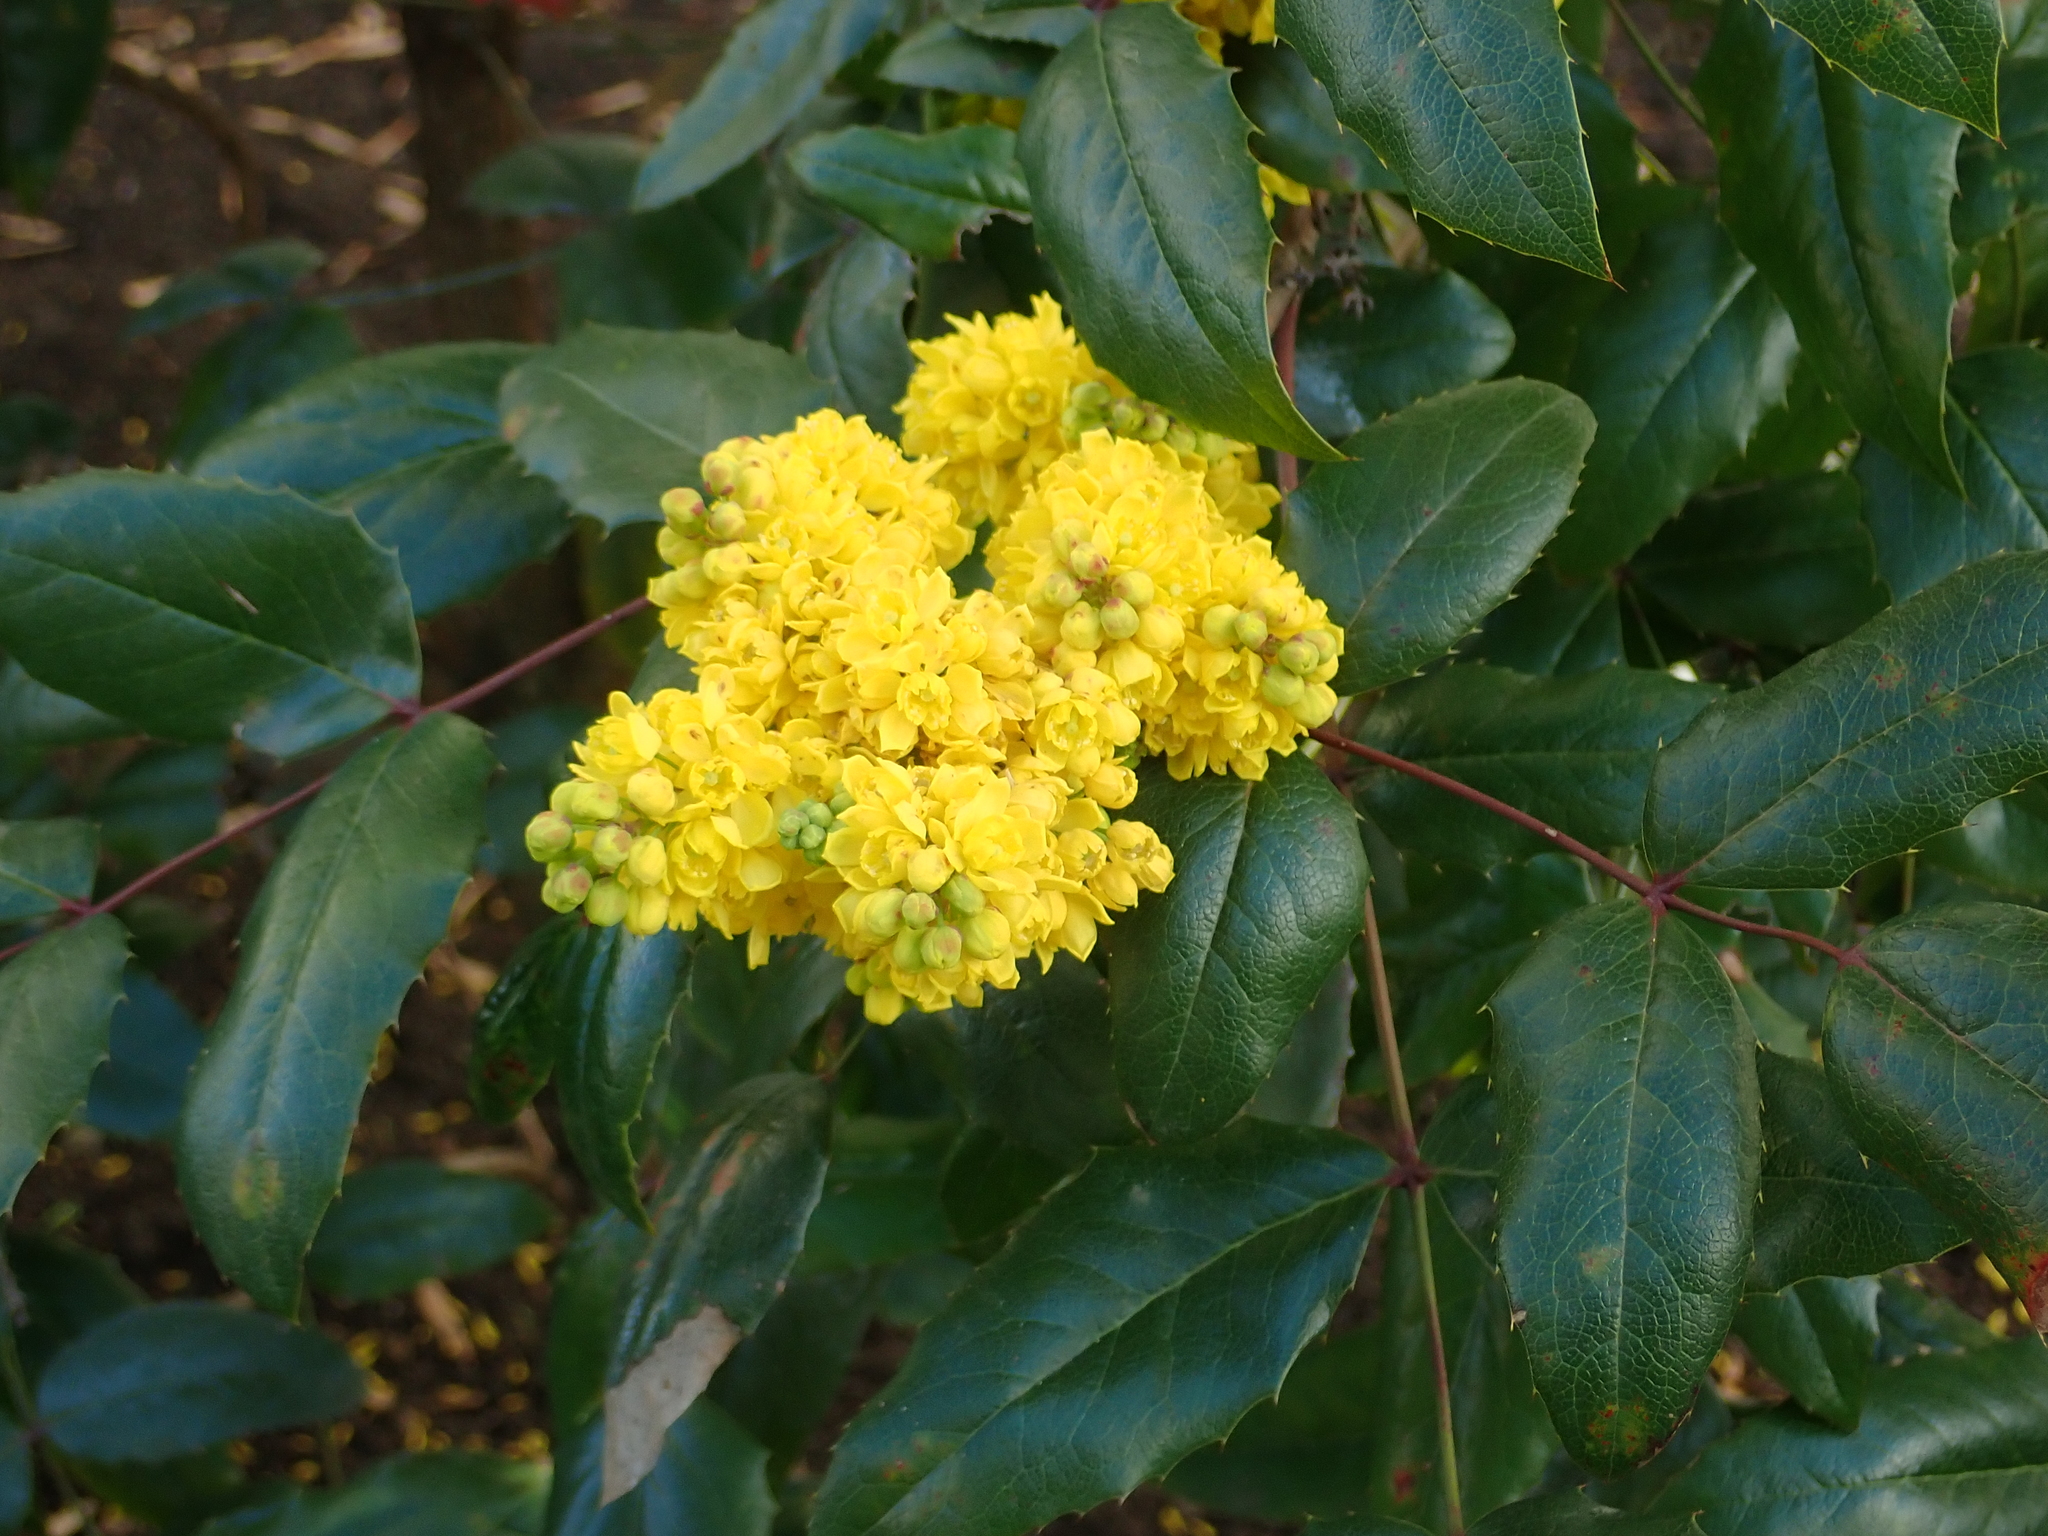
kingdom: Plantae
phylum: Tracheophyta
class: Magnoliopsida
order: Ranunculales
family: Berberidaceae
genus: Mahonia
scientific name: Mahonia aquifolium
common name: Oregon-grape
